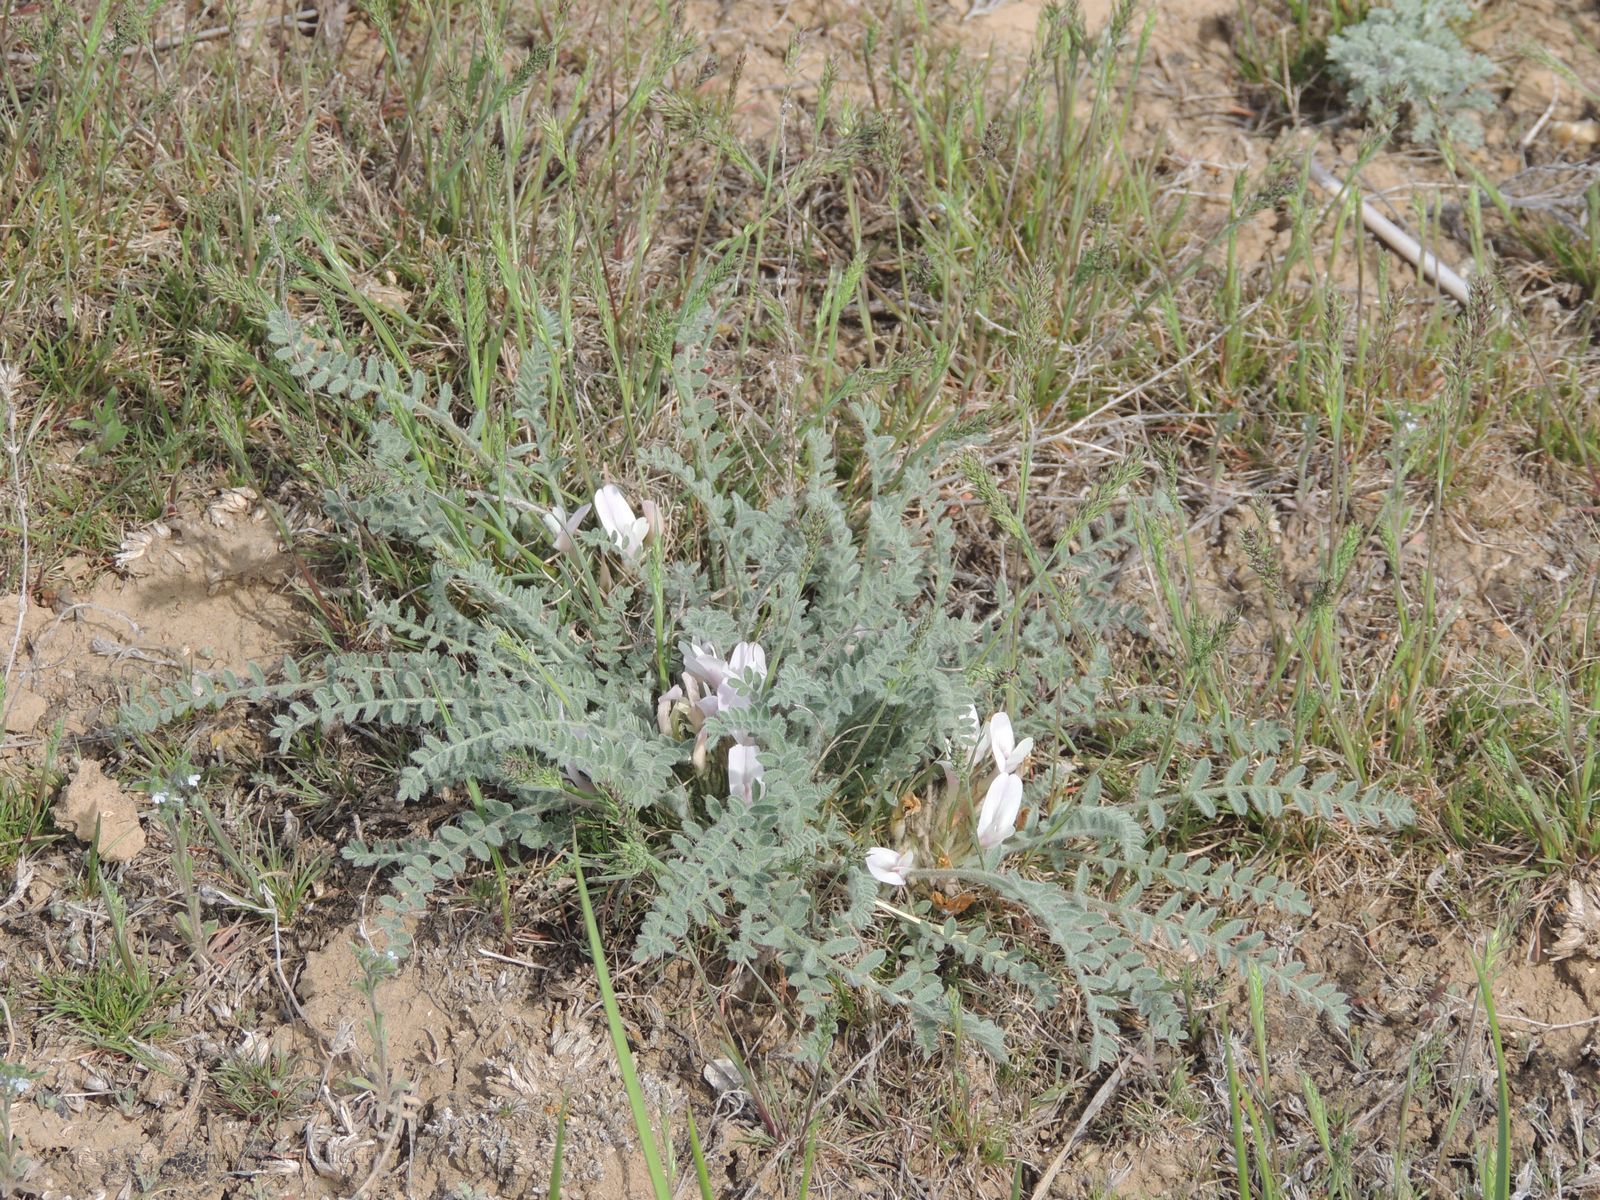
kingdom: Plantae
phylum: Tracheophyta
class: Magnoliopsida
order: Fabales
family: Fabaceae
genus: Astragalus
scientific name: Astragalus testiculatus
